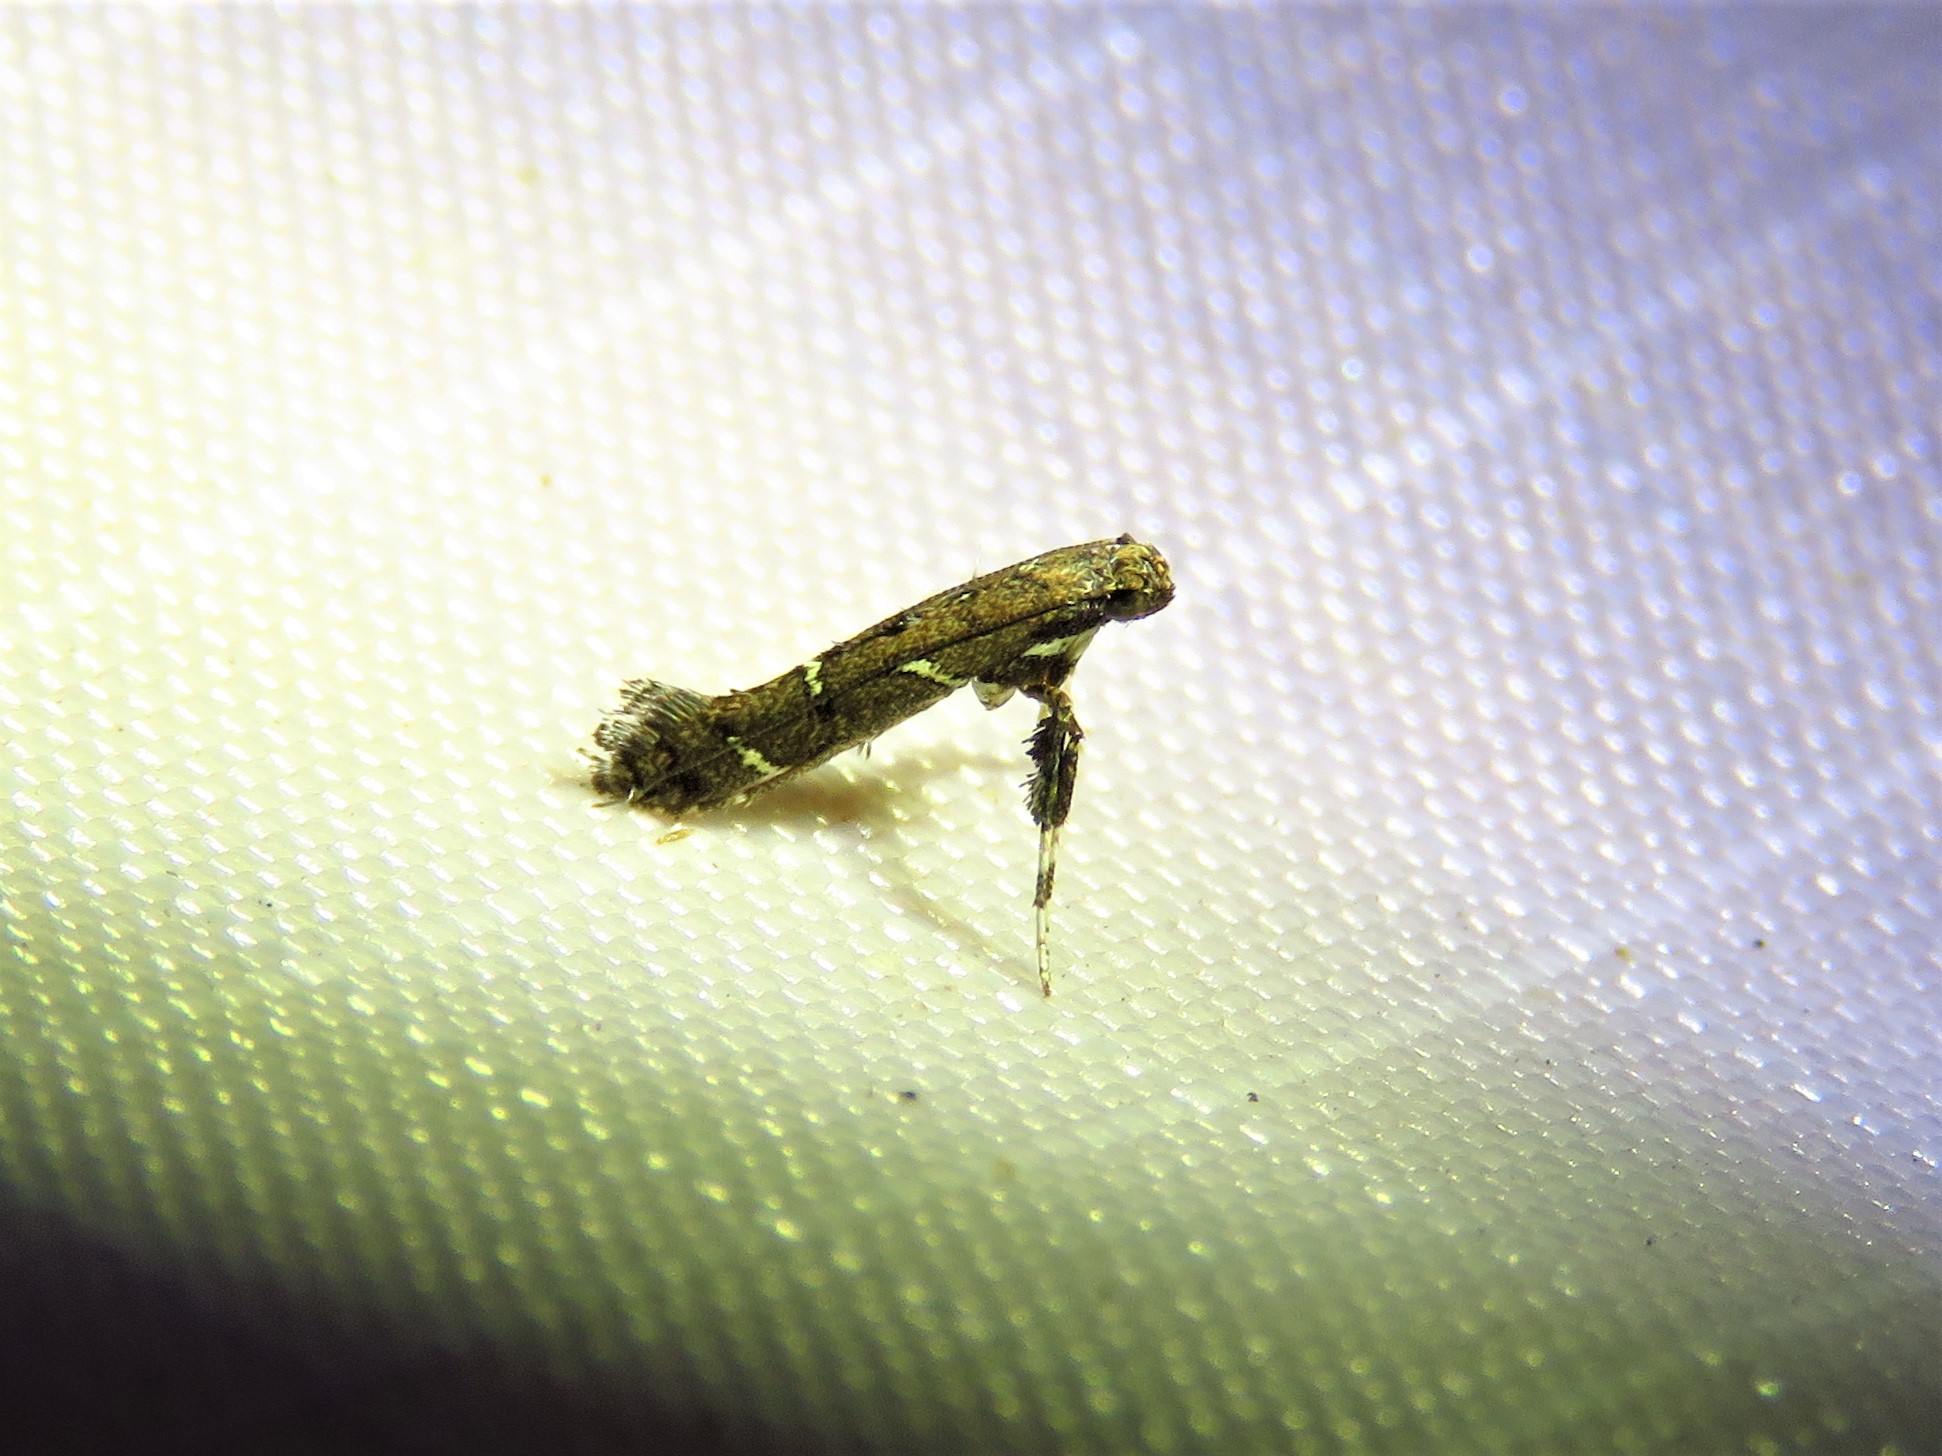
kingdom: Animalia
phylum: Arthropoda
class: Insecta
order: Lepidoptera
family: Gracillariidae
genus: Caloptilia
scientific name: Caloptilia triadicae
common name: Tallow leaf roller
